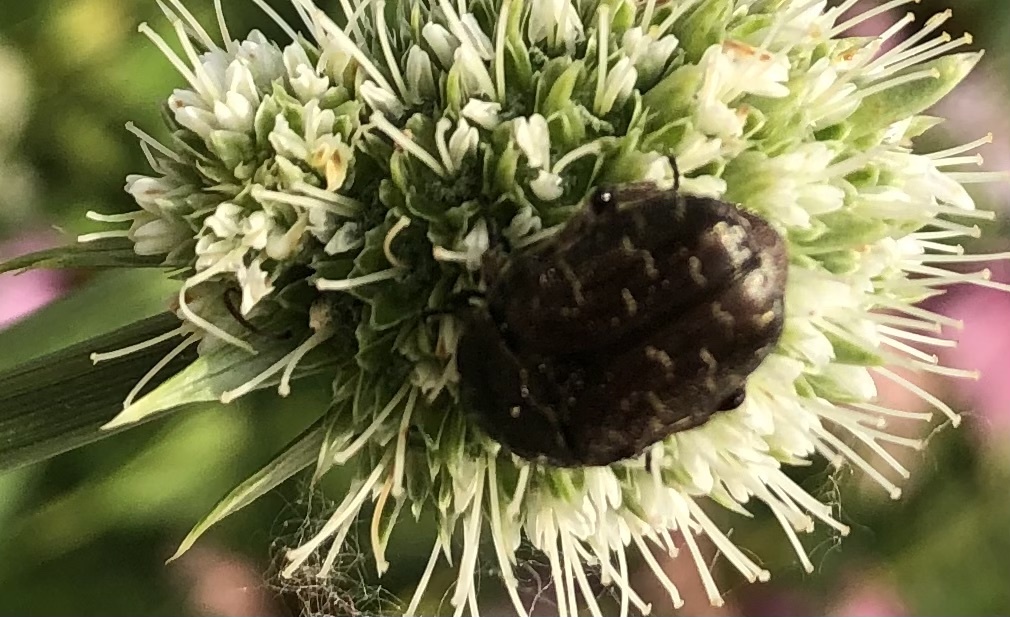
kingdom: Animalia
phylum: Arthropoda
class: Insecta
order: Coleoptera
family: Scarabaeidae
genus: Euphoria
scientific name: Euphoria sepulcralis
